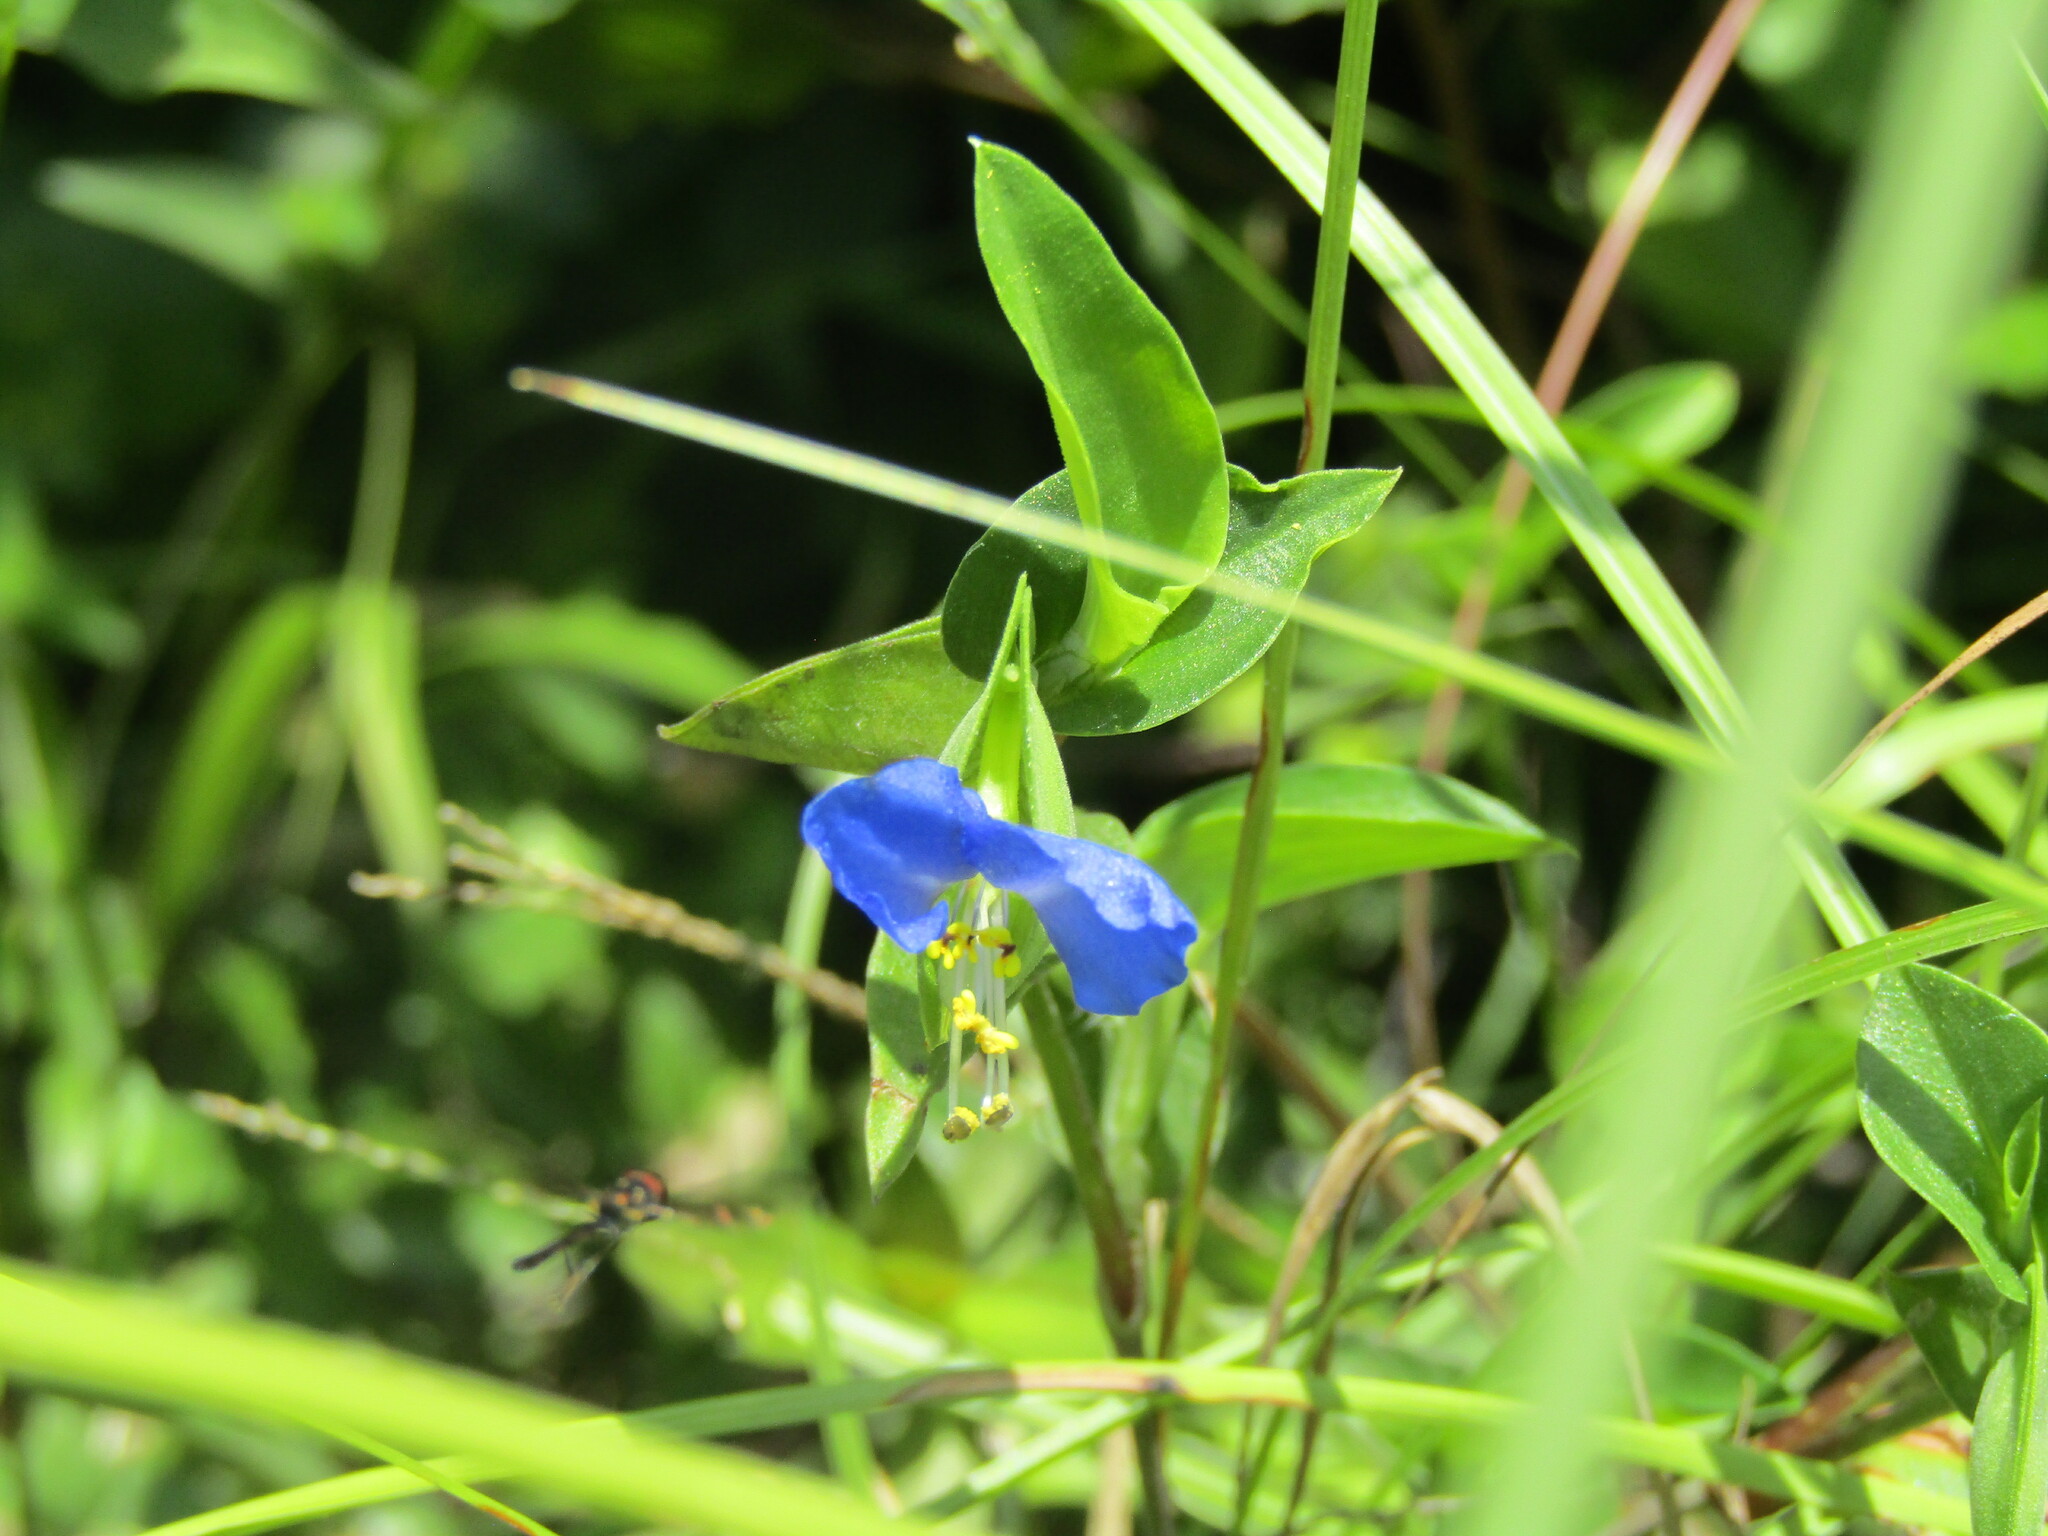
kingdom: Plantae
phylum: Tracheophyta
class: Liliopsida
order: Commelinales
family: Commelinaceae
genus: Commelina
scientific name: Commelina communis
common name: Asiatic dayflower
